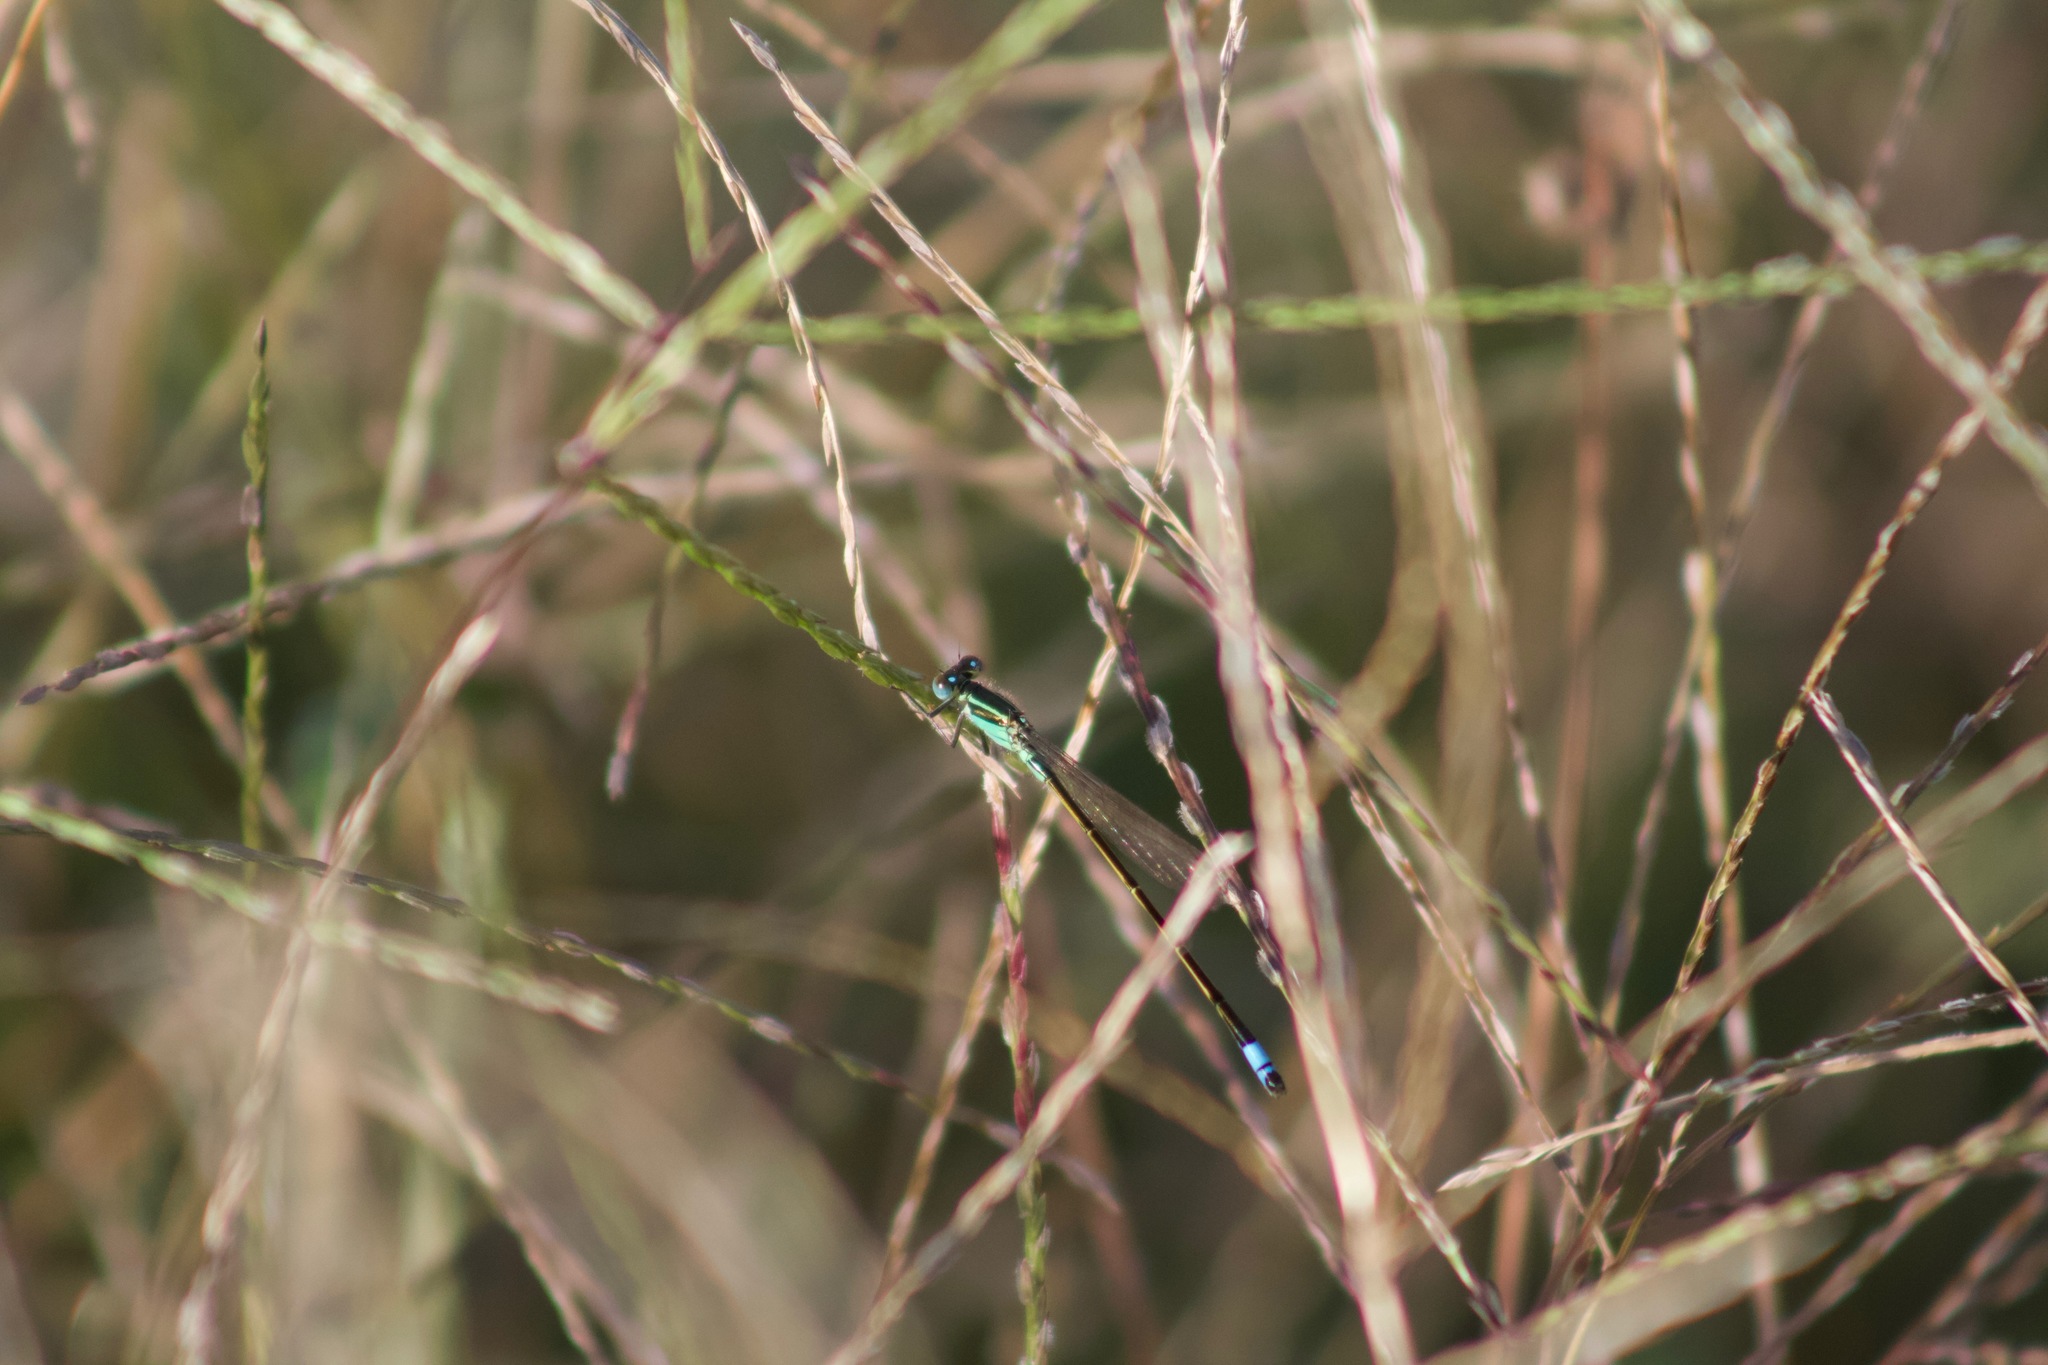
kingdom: Animalia
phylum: Arthropoda
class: Insecta
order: Odonata
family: Coenagrionidae
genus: Ischnura
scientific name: Ischnura ramburii
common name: Rambur's forktail
